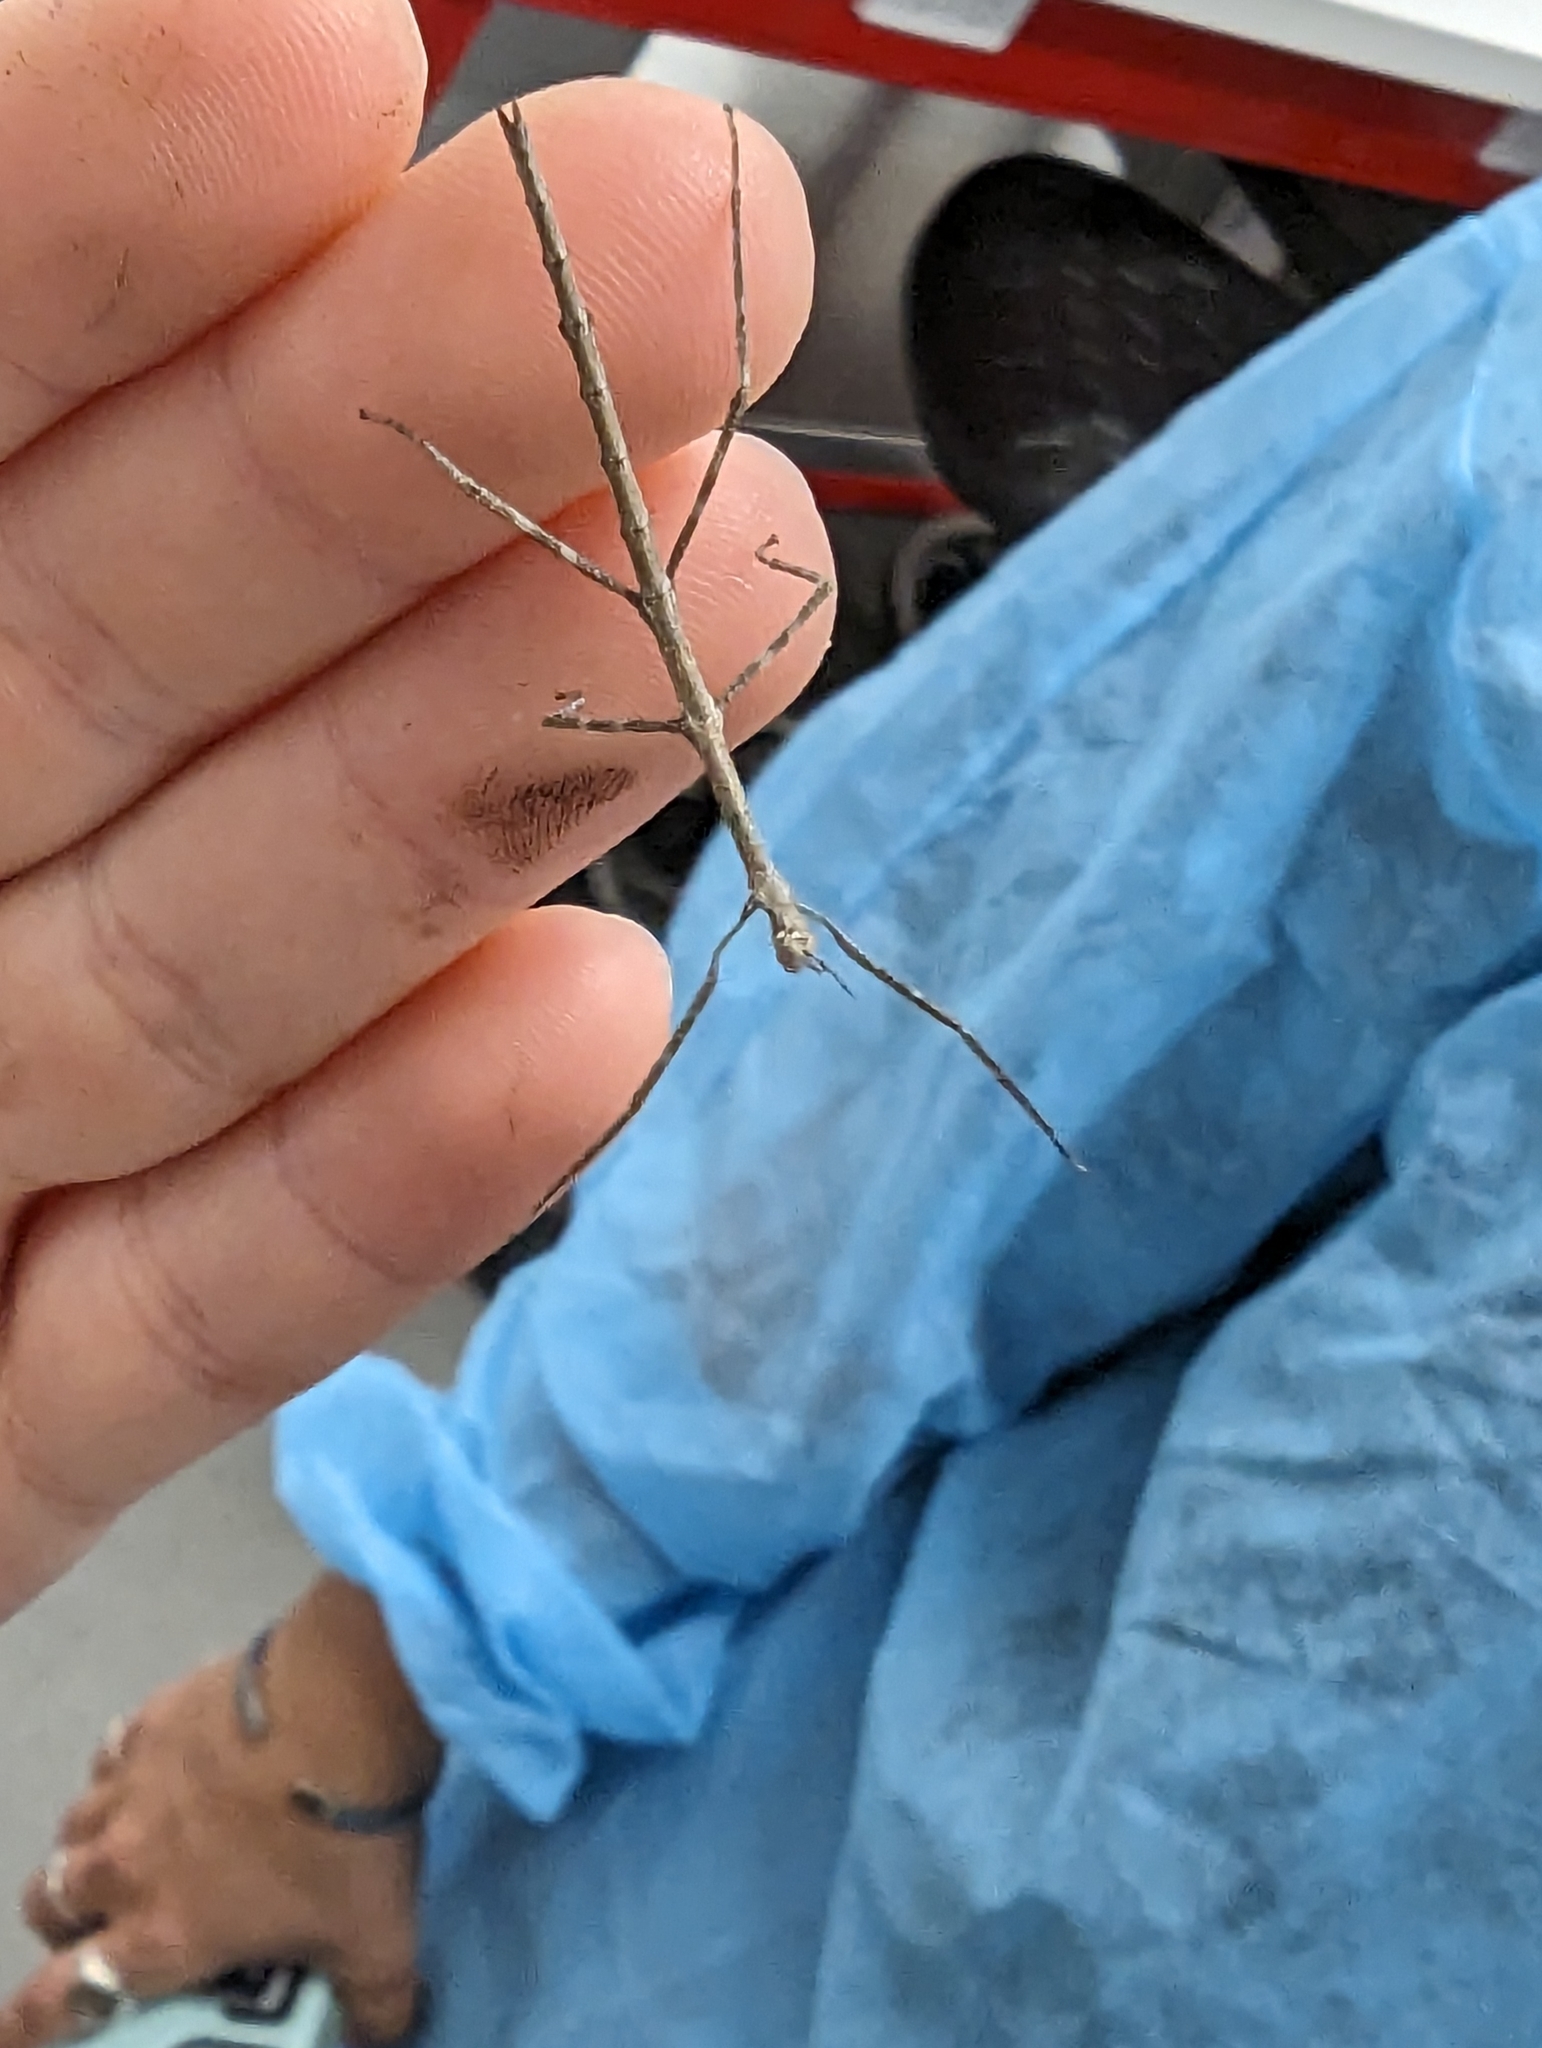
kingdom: Animalia
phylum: Arthropoda
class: Insecta
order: Phasmida
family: Phasmatidae
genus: Ctenomorpha
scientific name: Ctenomorpha marginipennis
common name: Margined-winged stick-insect
